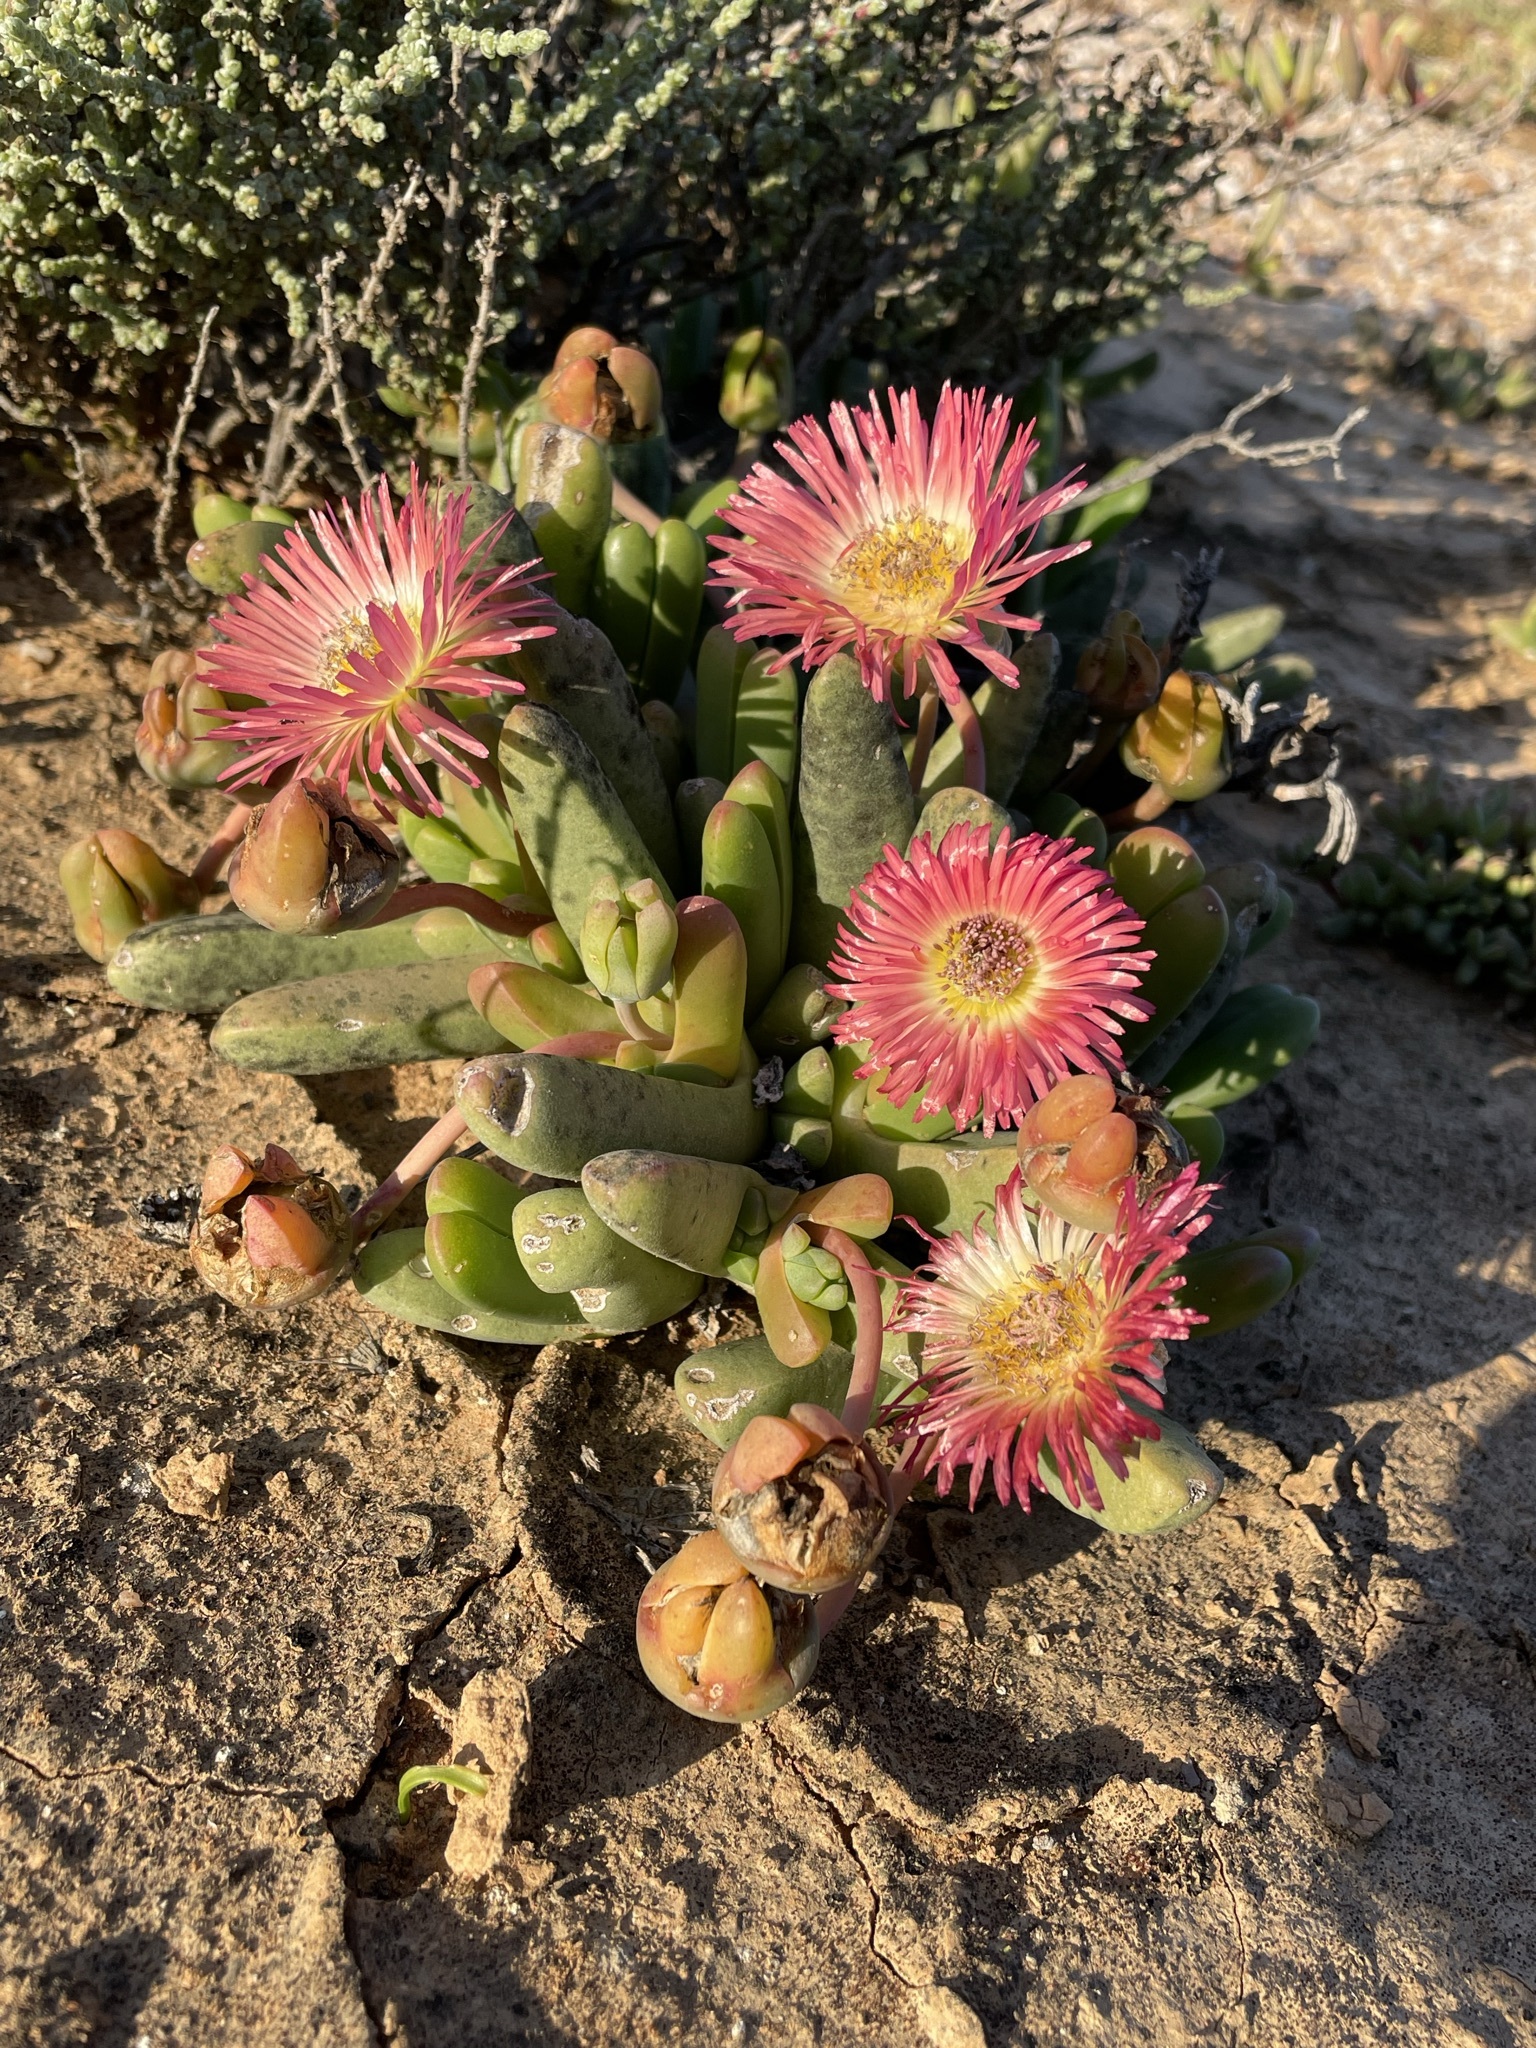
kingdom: Plantae
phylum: Tracheophyta
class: Magnoliopsida
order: Caryophyllales
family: Aizoaceae
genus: Cephalophyllum
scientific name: Cephalophyllum spissum
